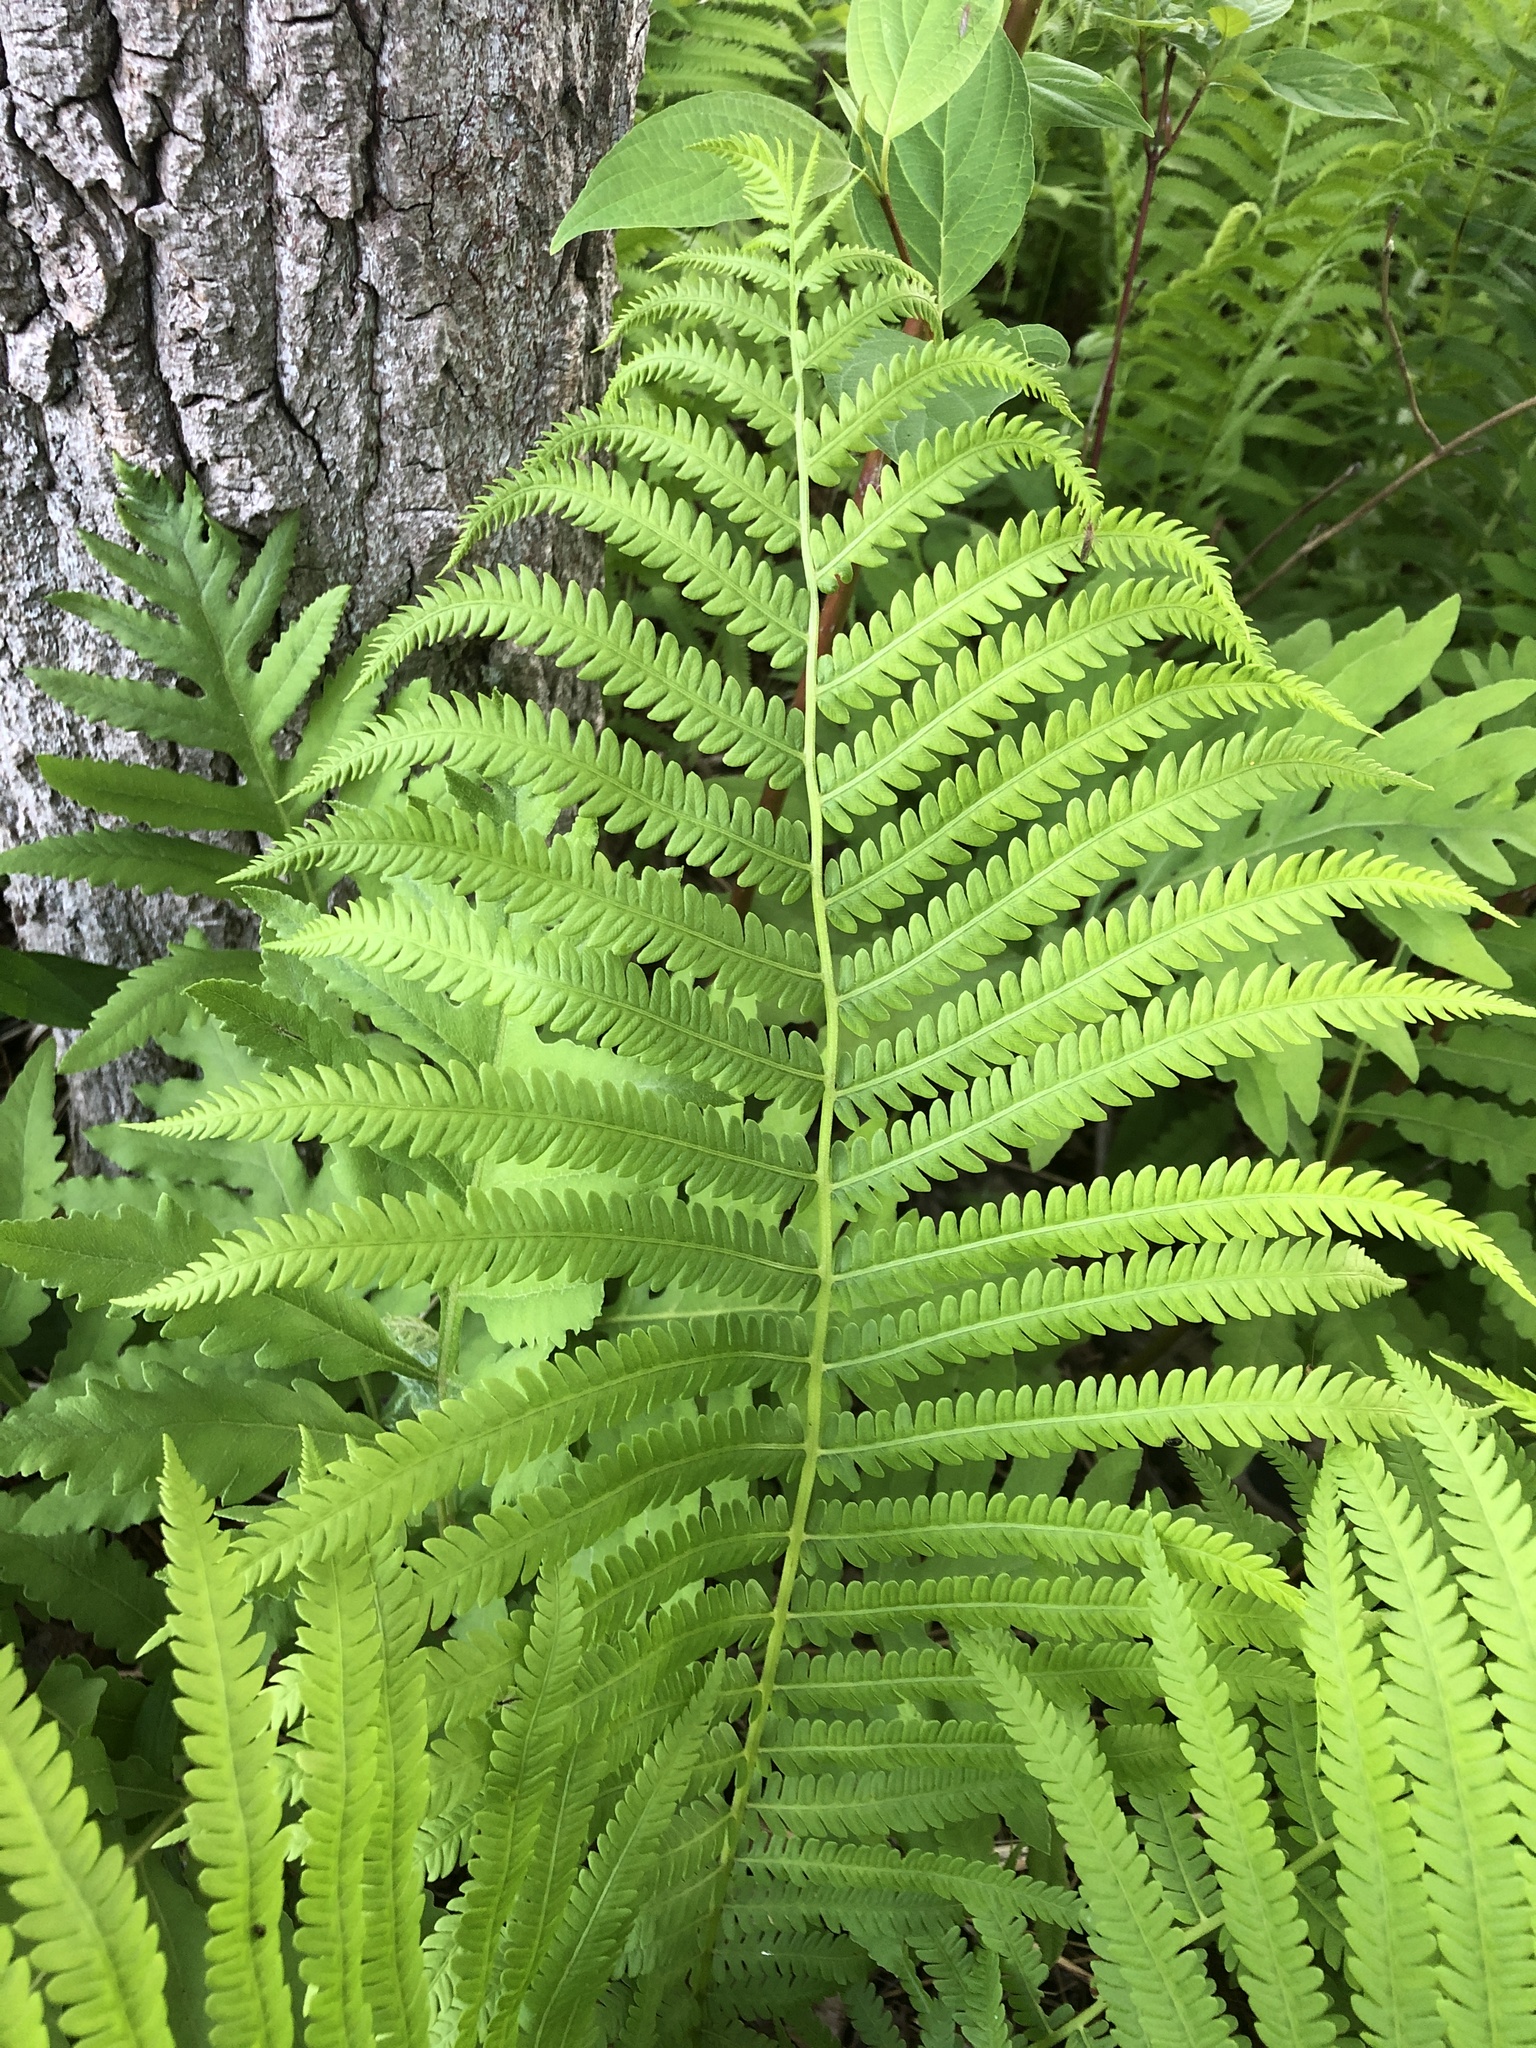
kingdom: Plantae
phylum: Tracheophyta
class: Polypodiopsida
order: Polypodiales
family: Onocleaceae
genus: Matteuccia
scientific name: Matteuccia struthiopteris
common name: Ostrich fern
